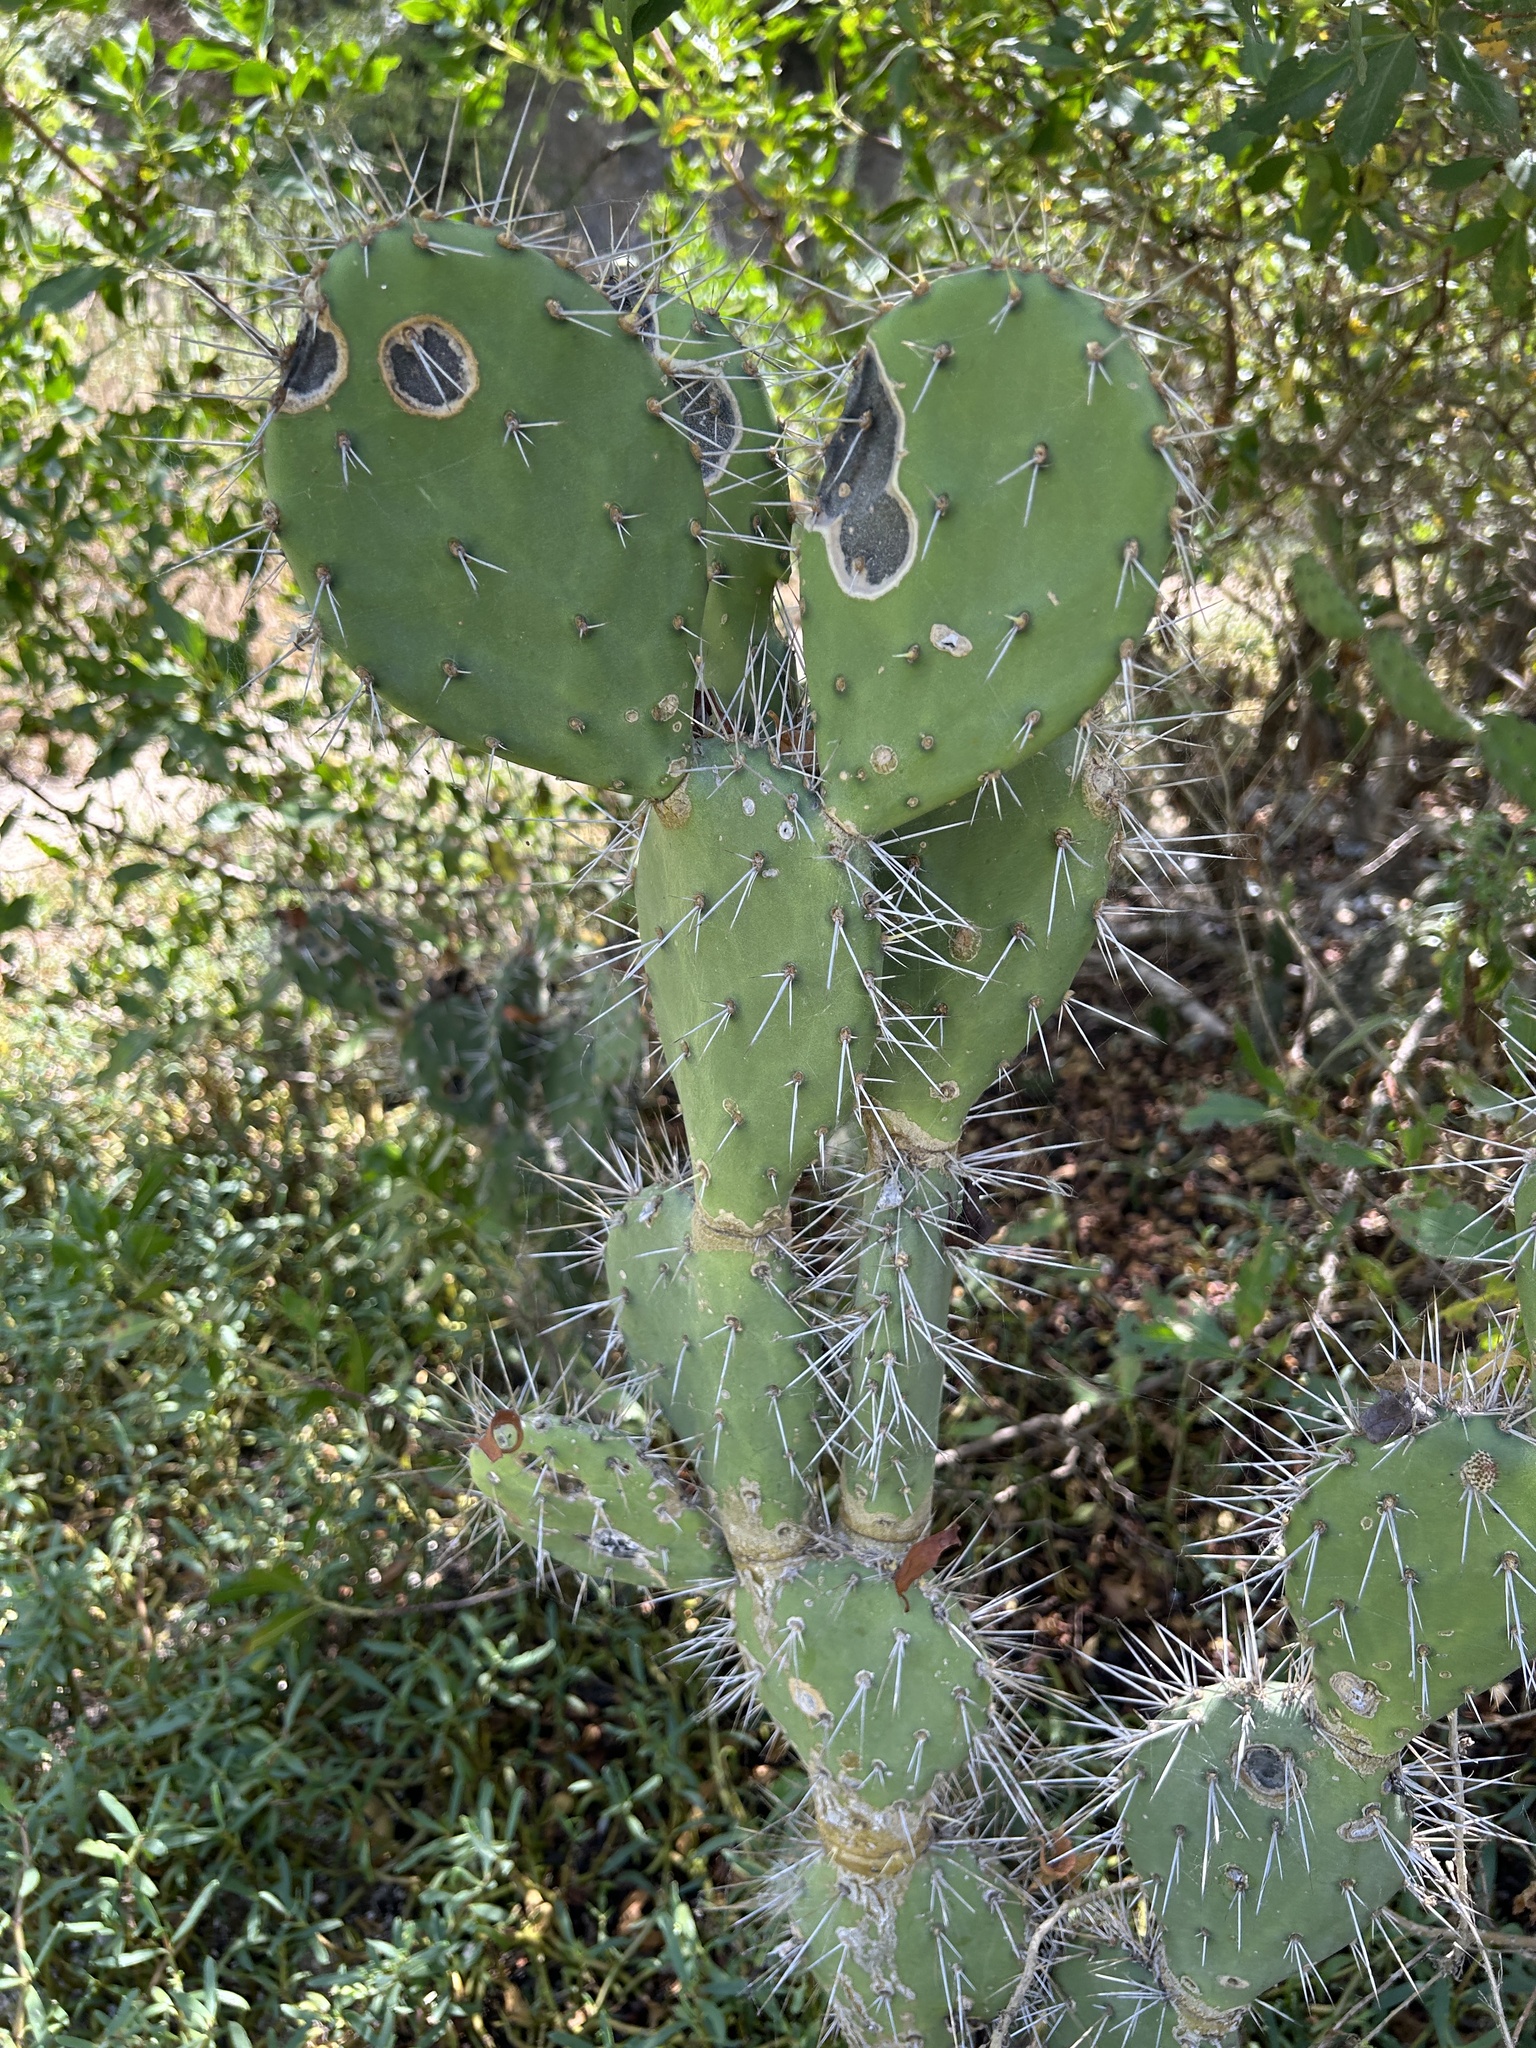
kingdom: Plantae
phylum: Tracheophyta
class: Magnoliopsida
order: Caryophyllales
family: Cactaceae
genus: Opuntia
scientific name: Opuntia caracassana
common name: Common prickly pear
